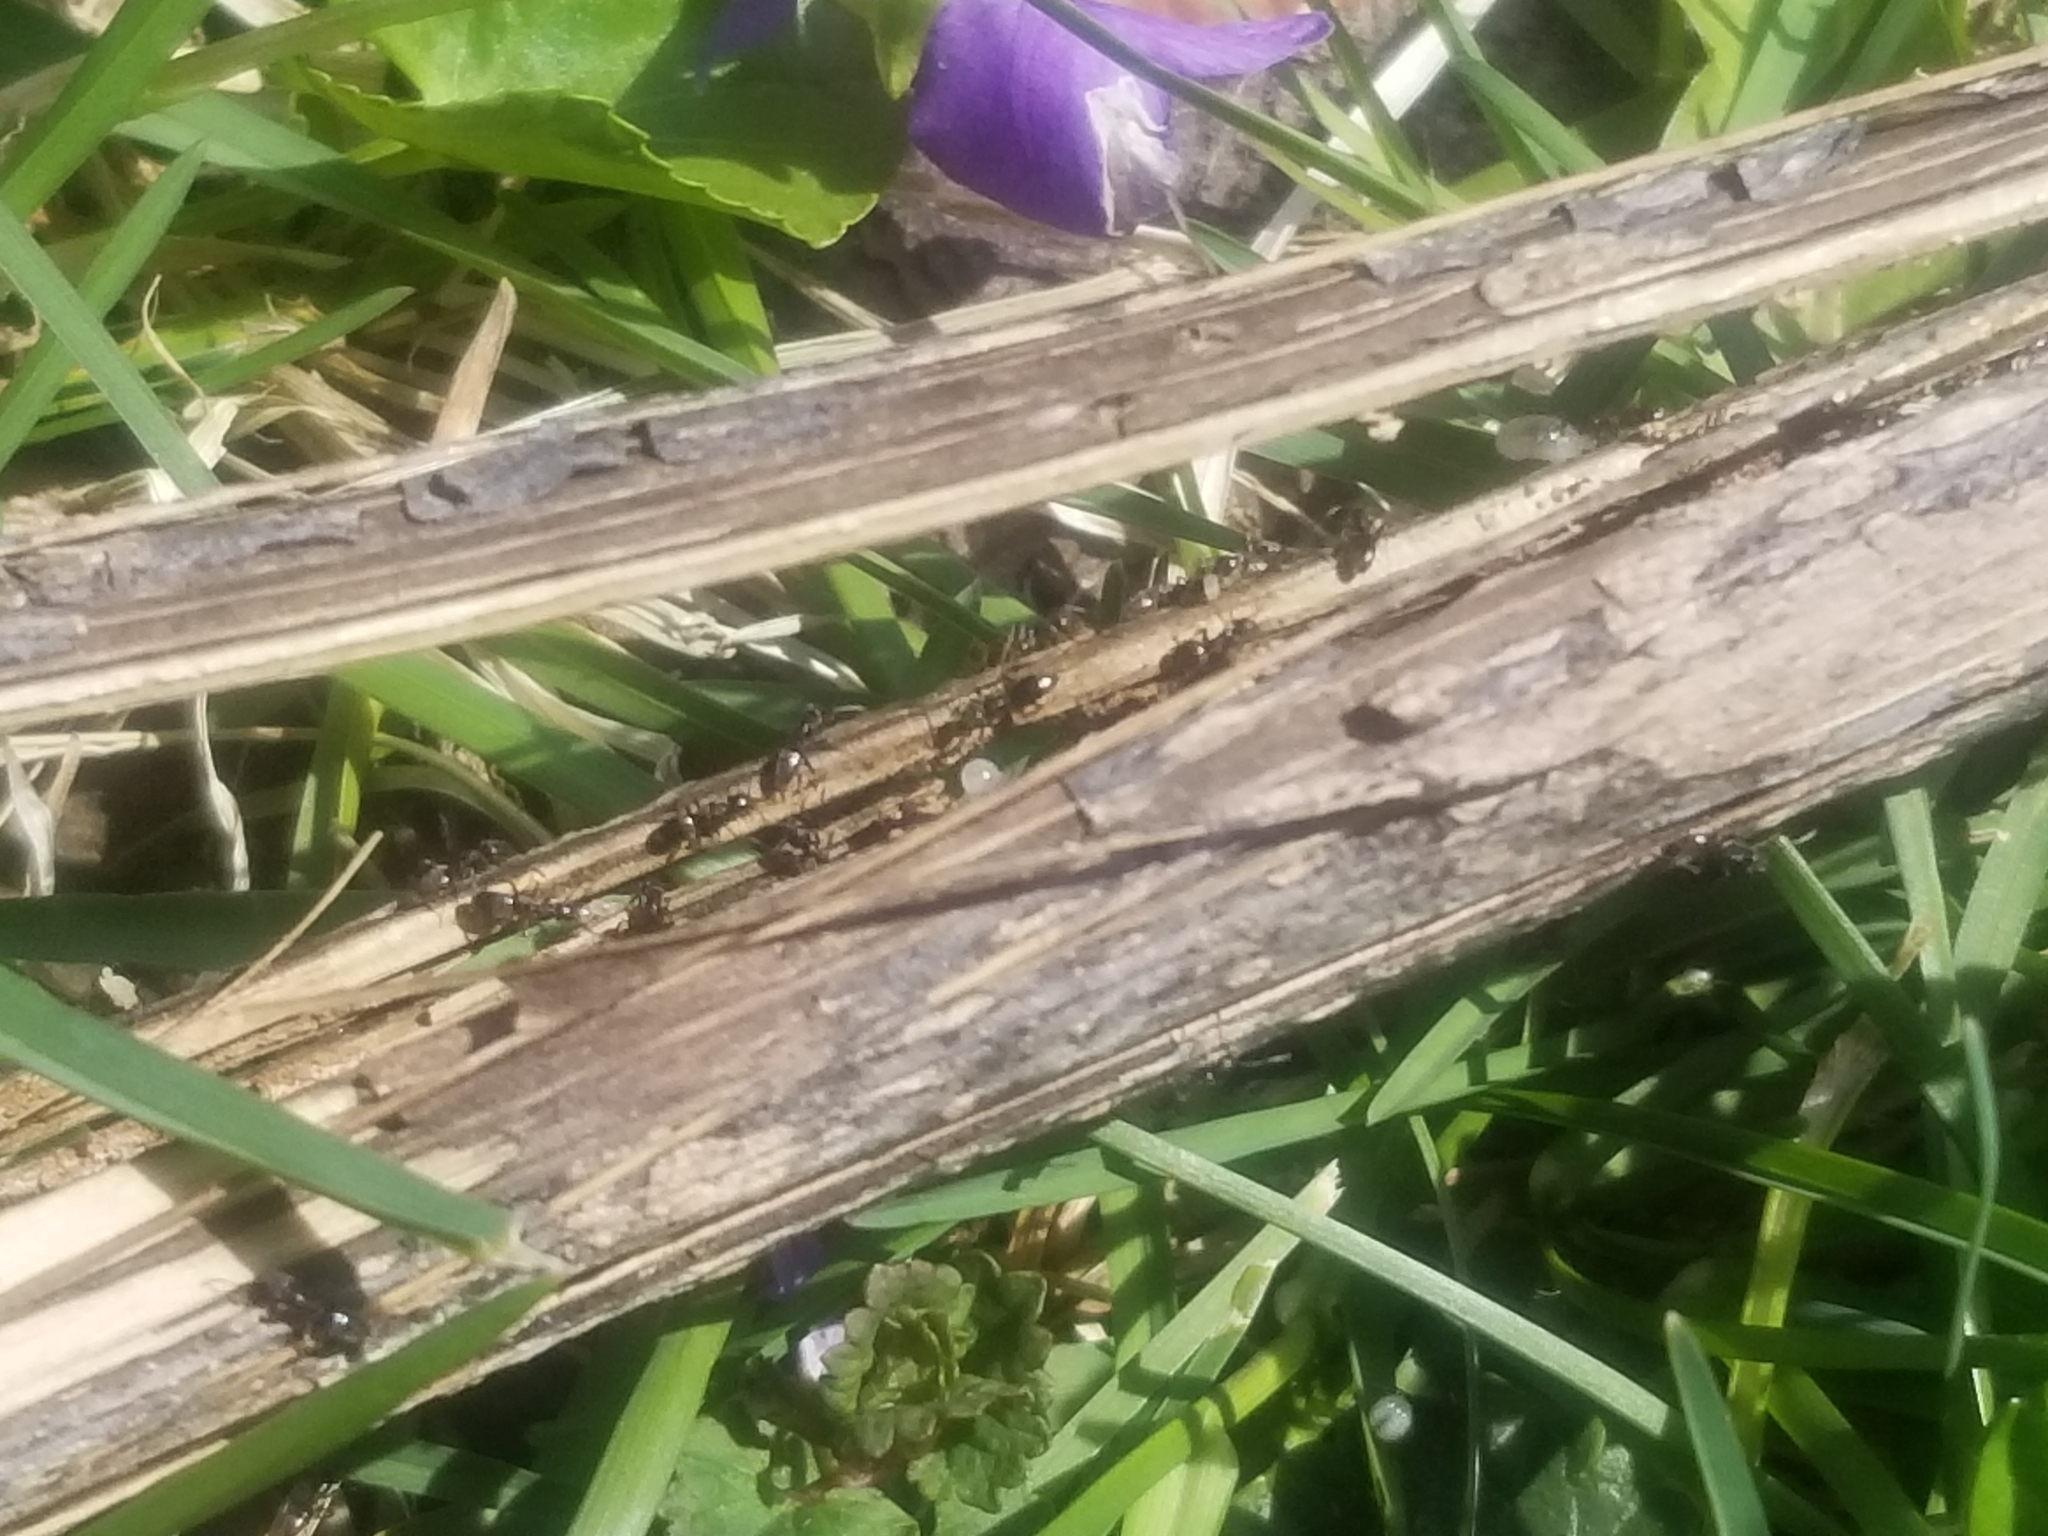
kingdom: Animalia
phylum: Arthropoda
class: Insecta
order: Hymenoptera
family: Formicidae
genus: Tapinoma
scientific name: Tapinoma sessile
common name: Odorous house ant
